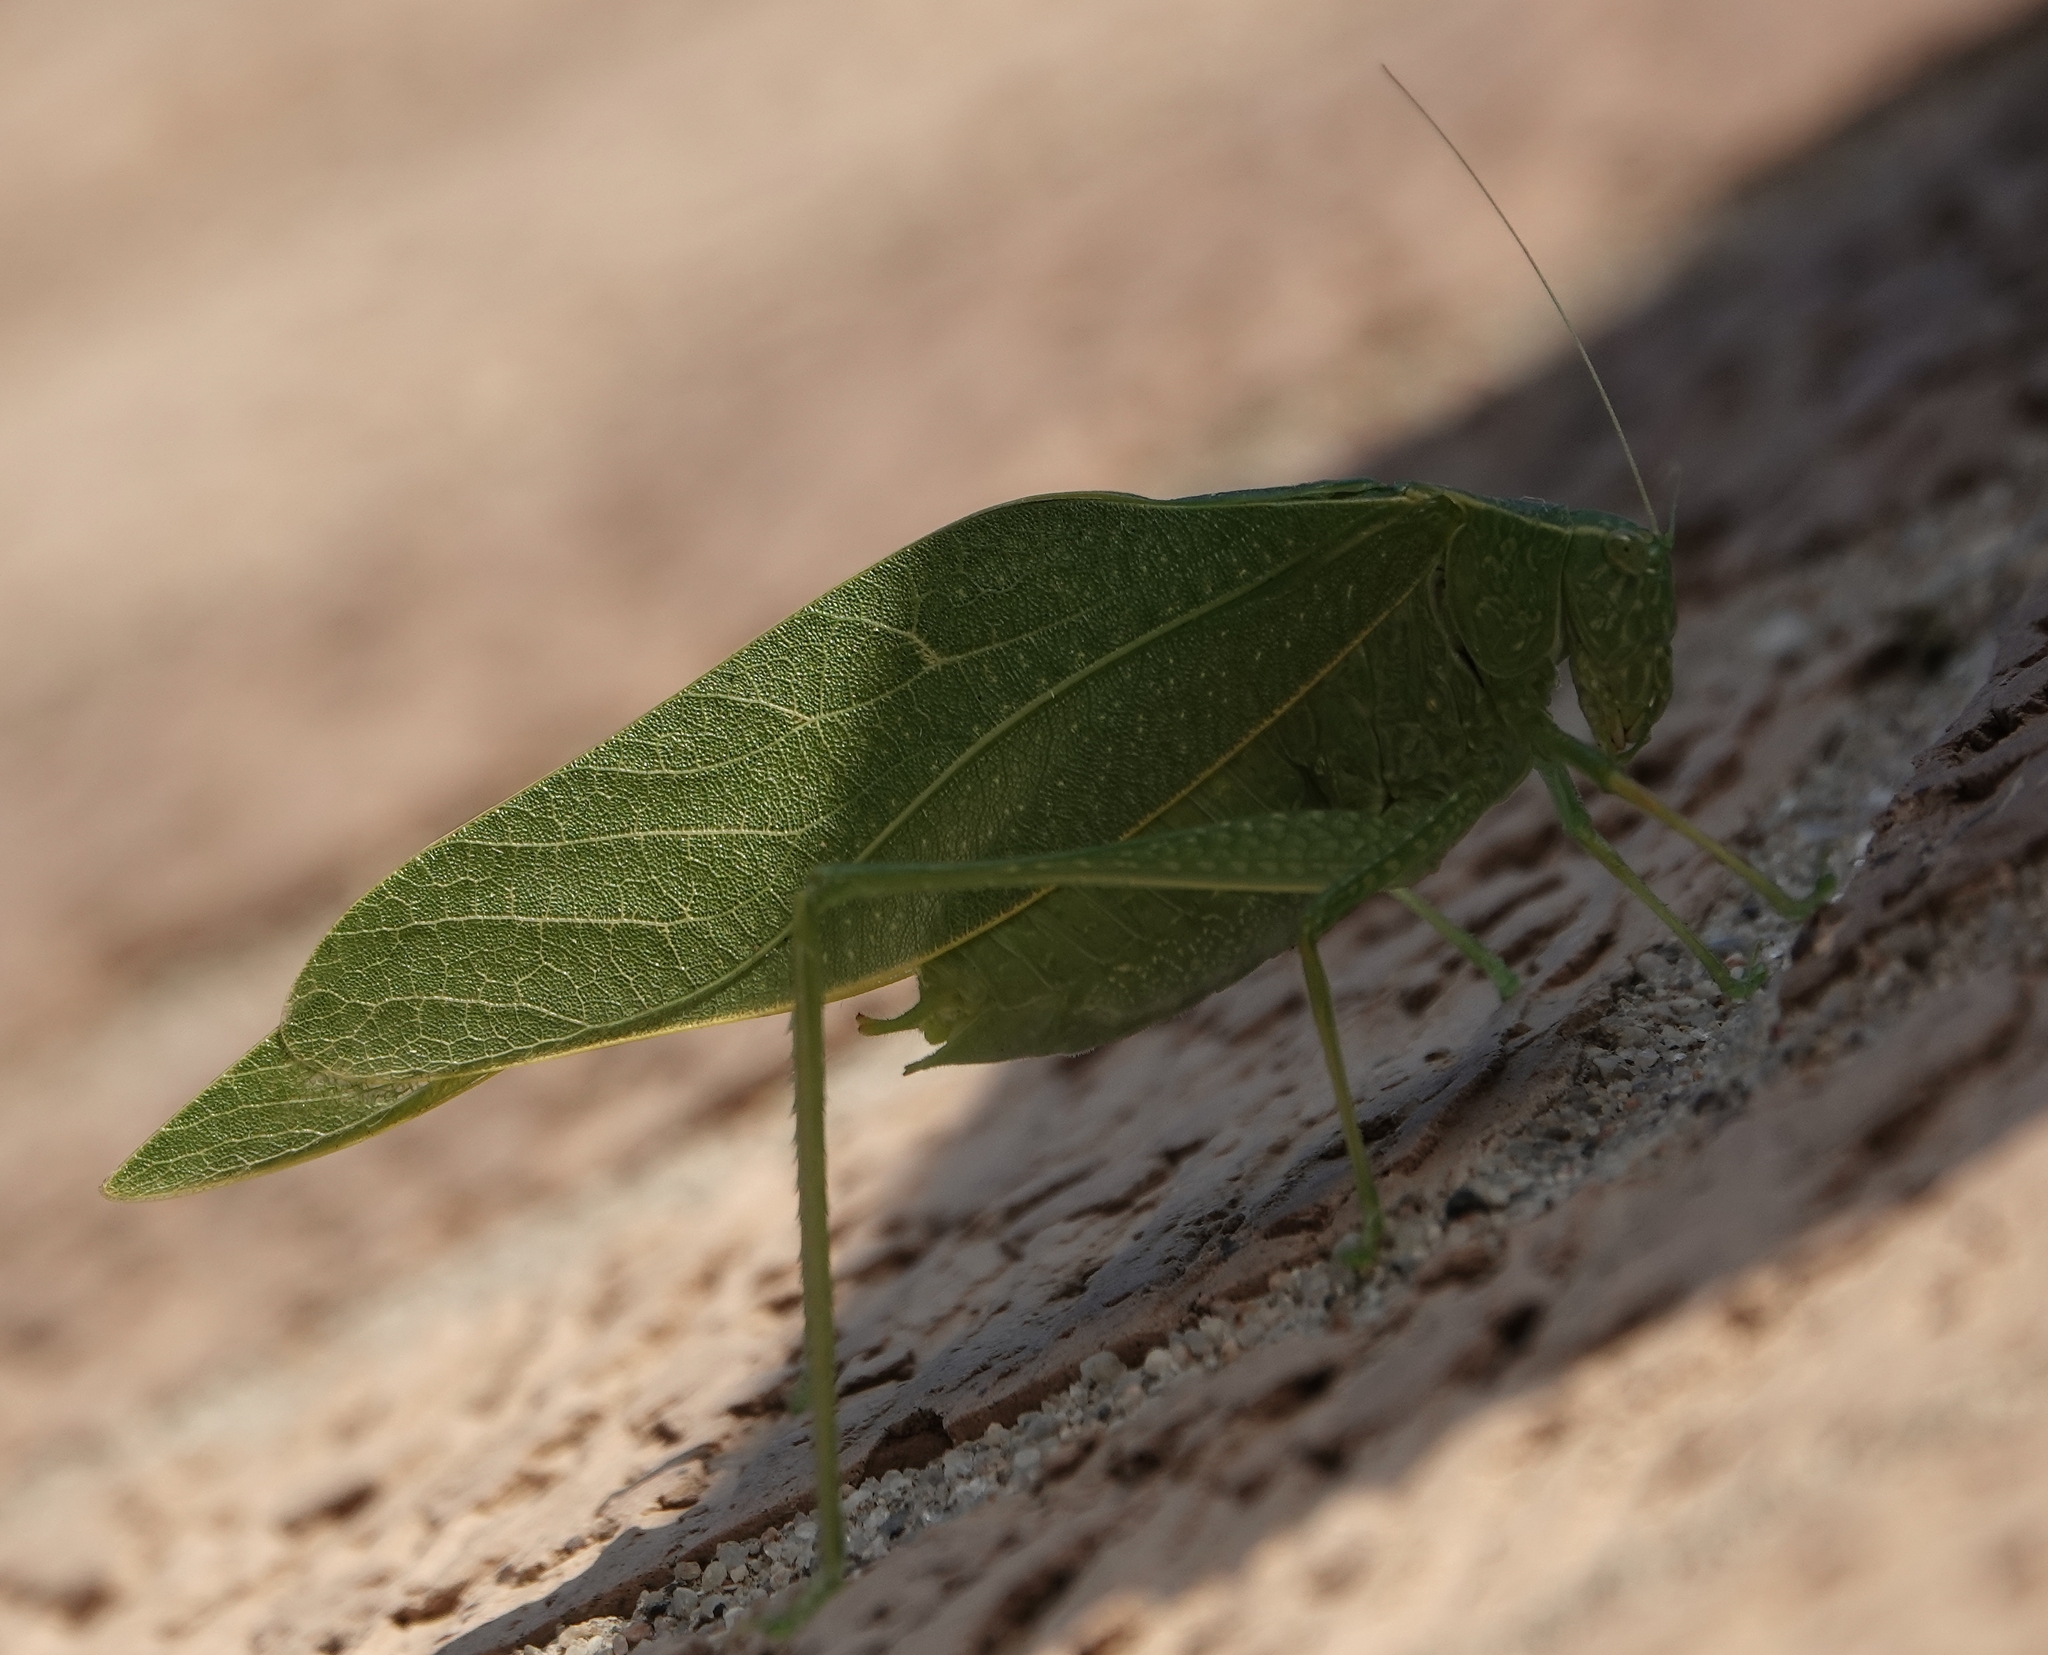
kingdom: Animalia
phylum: Arthropoda
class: Insecta
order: Orthoptera
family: Tettigoniidae
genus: Microcentrum
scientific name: Microcentrum rhombifolium
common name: Broad-winged katydid
